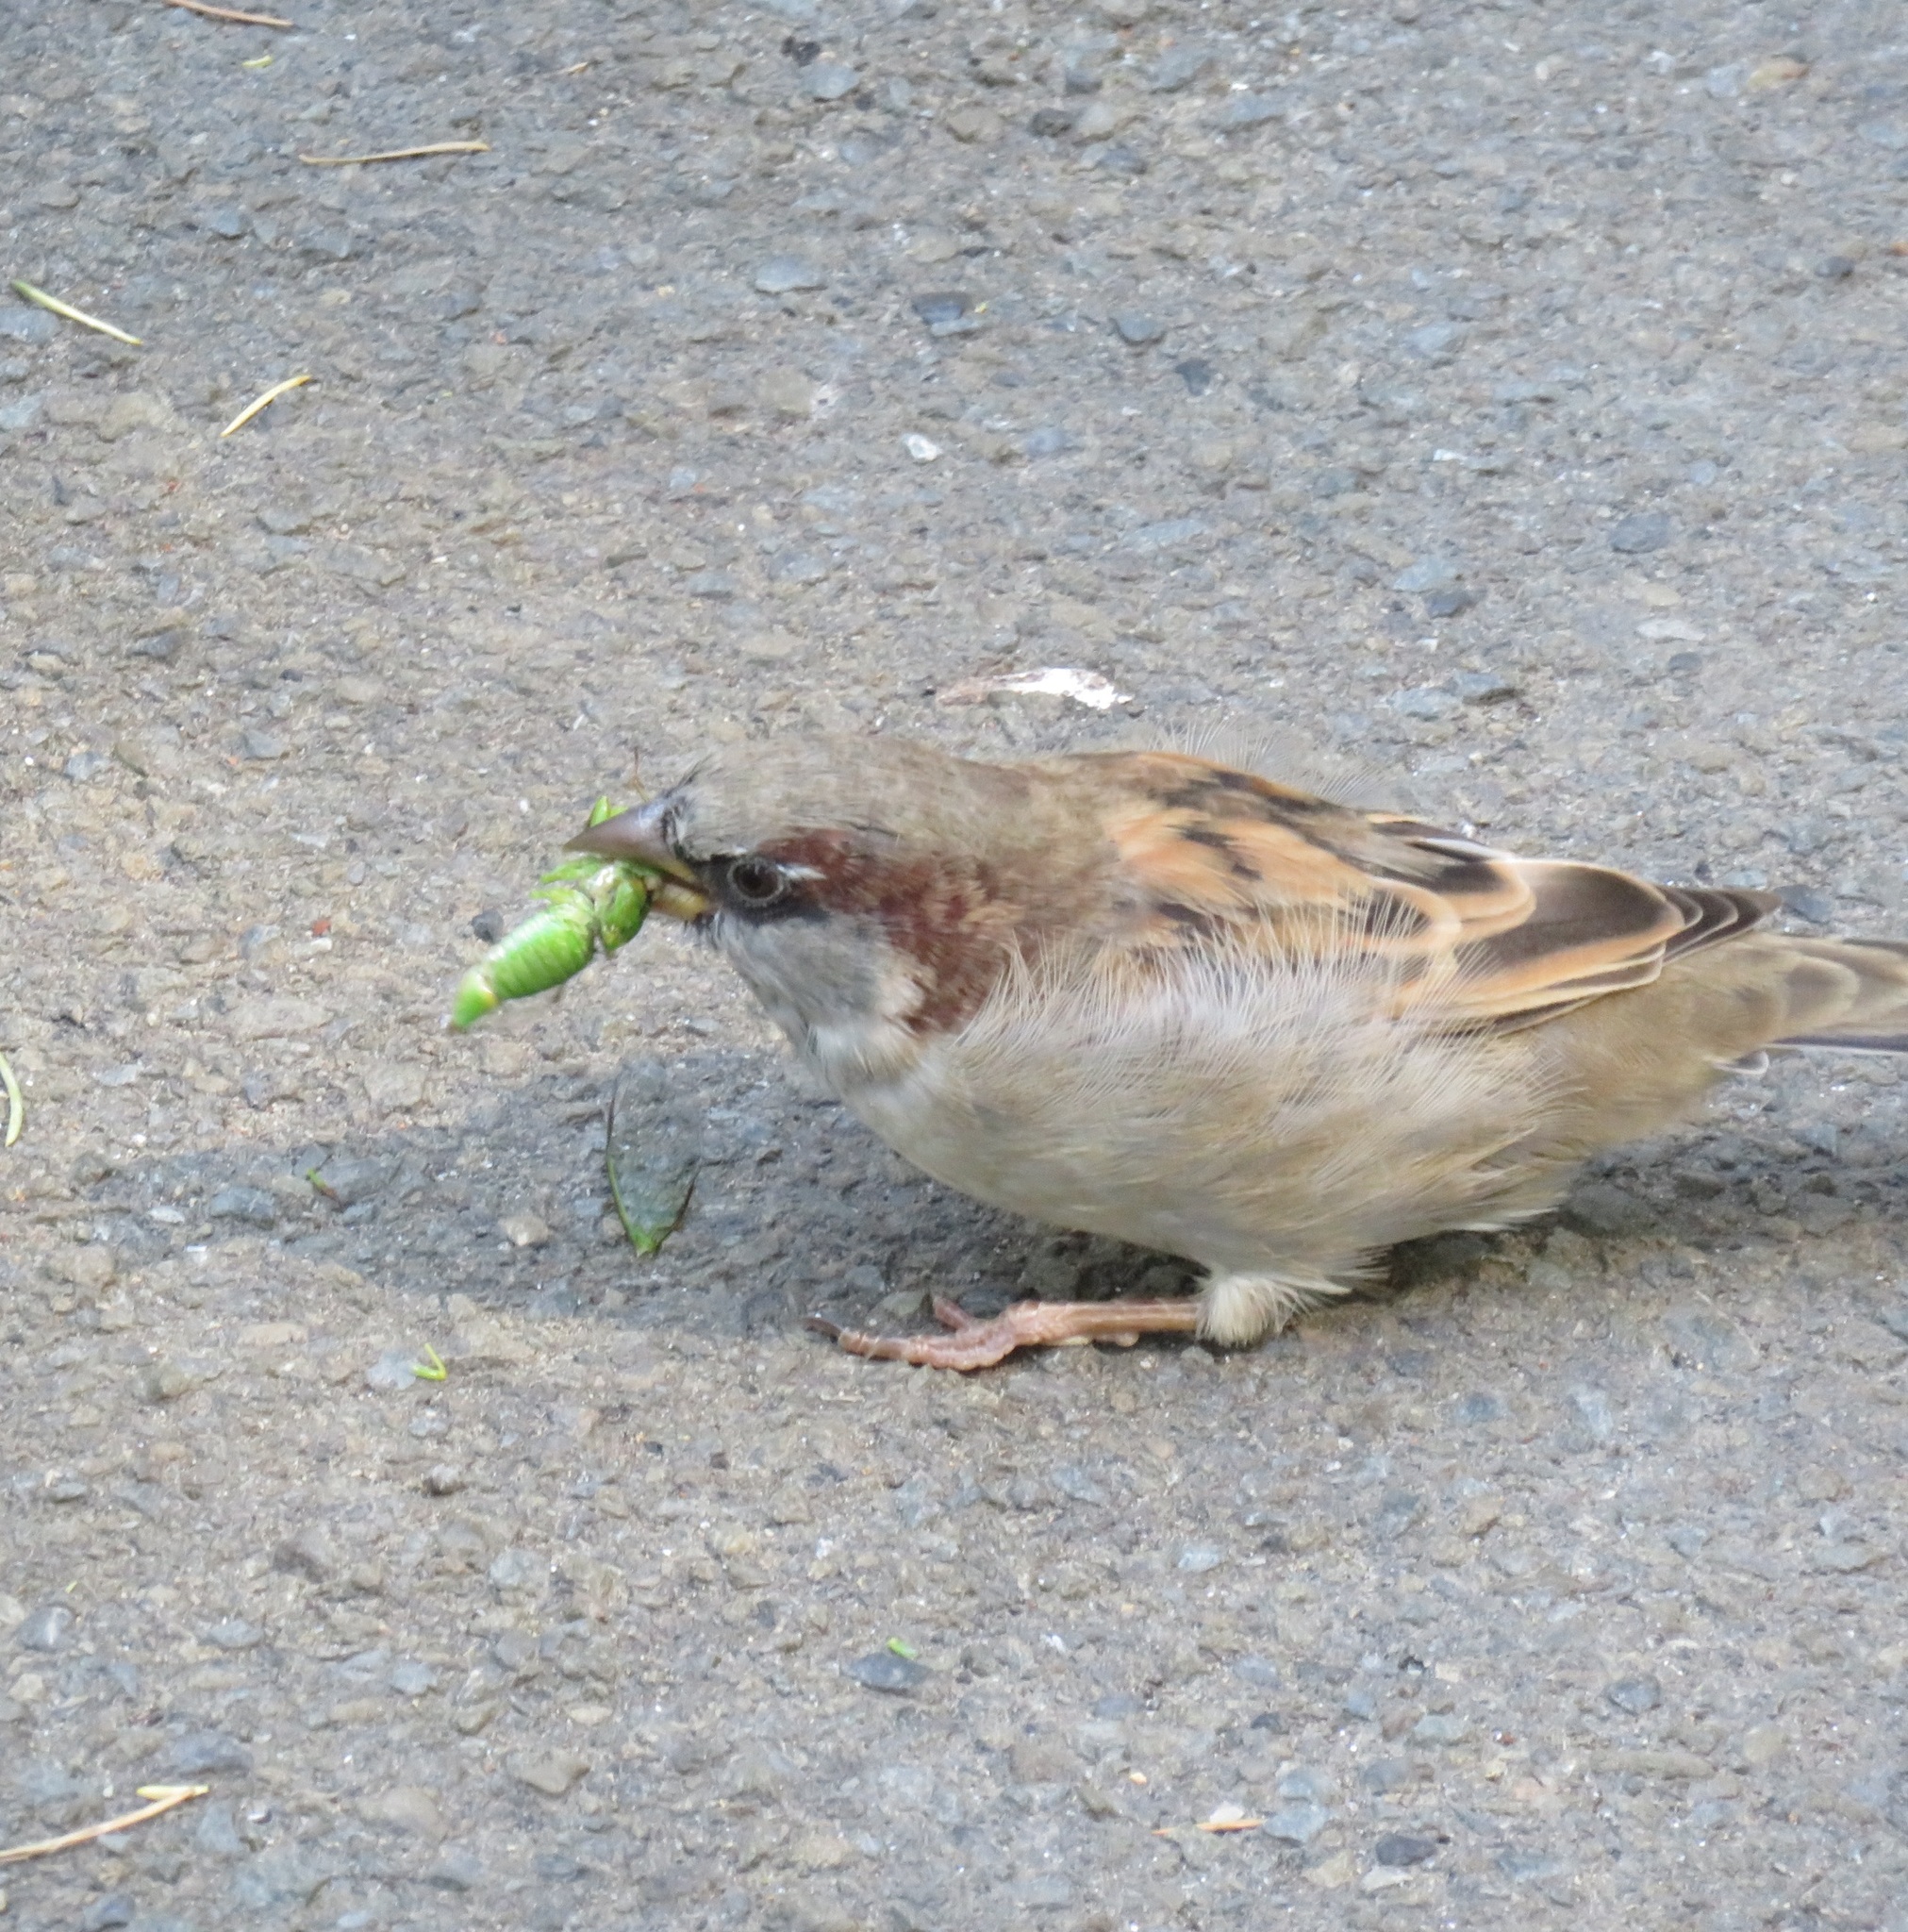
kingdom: Animalia
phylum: Chordata
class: Aves
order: Passeriformes
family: Passeridae
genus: Passer
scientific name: Passer domesticus
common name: House sparrow
